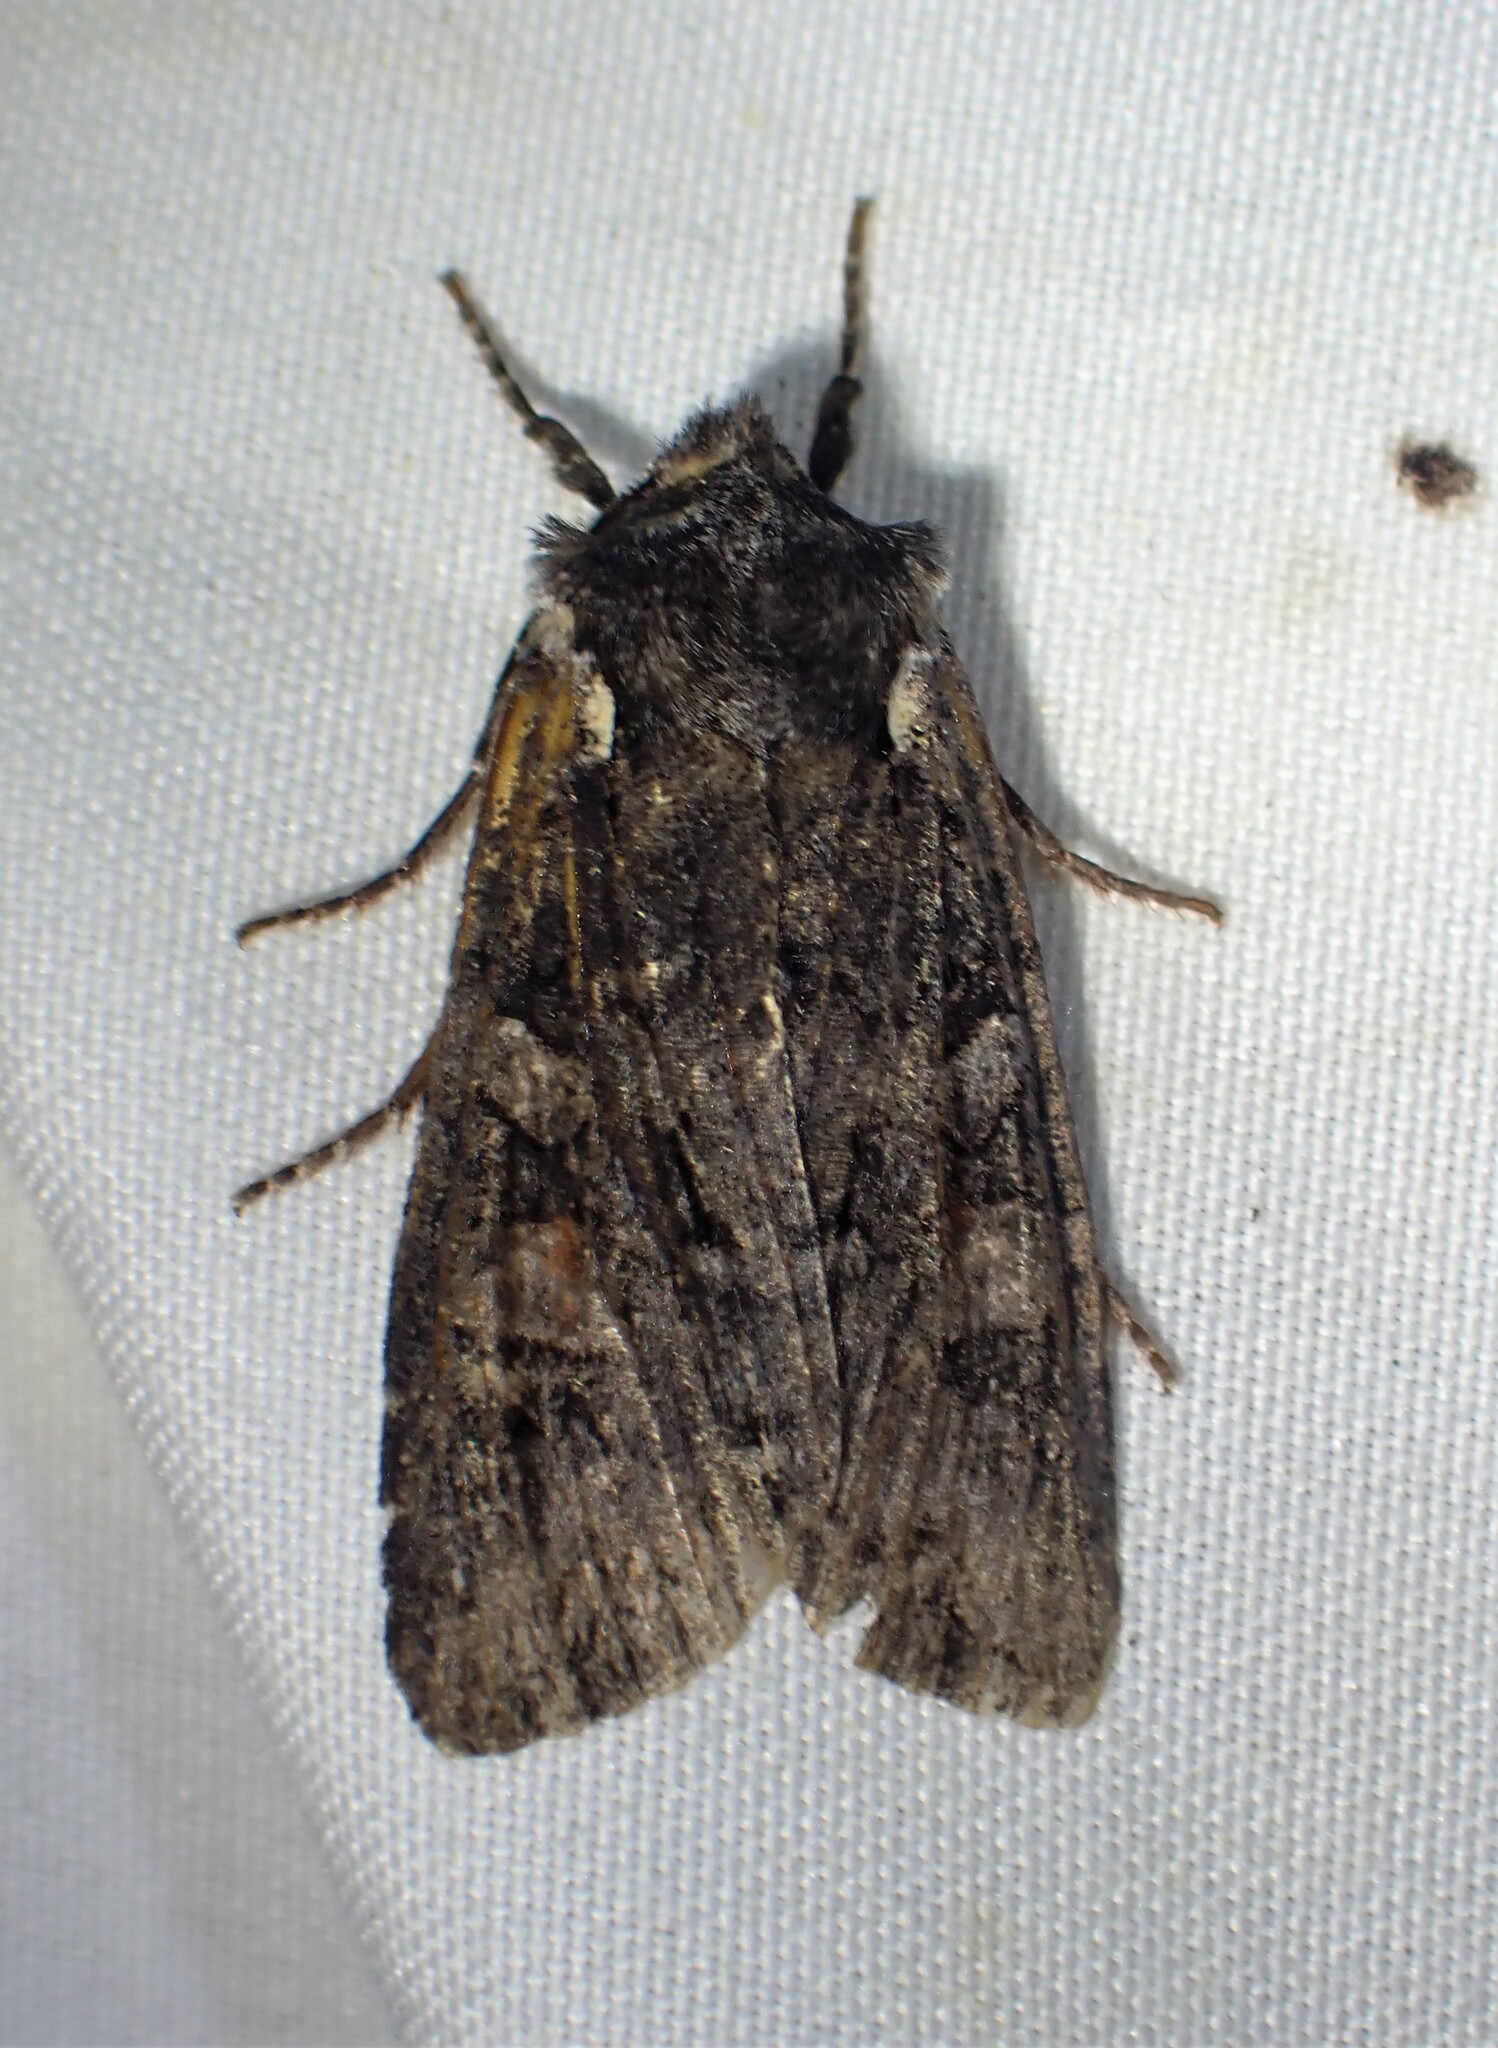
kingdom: Animalia
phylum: Arthropoda
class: Insecta
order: Lepidoptera
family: Noctuidae
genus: Lithophane
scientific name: Lithophane pexata
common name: Plush-naped pinion moth
